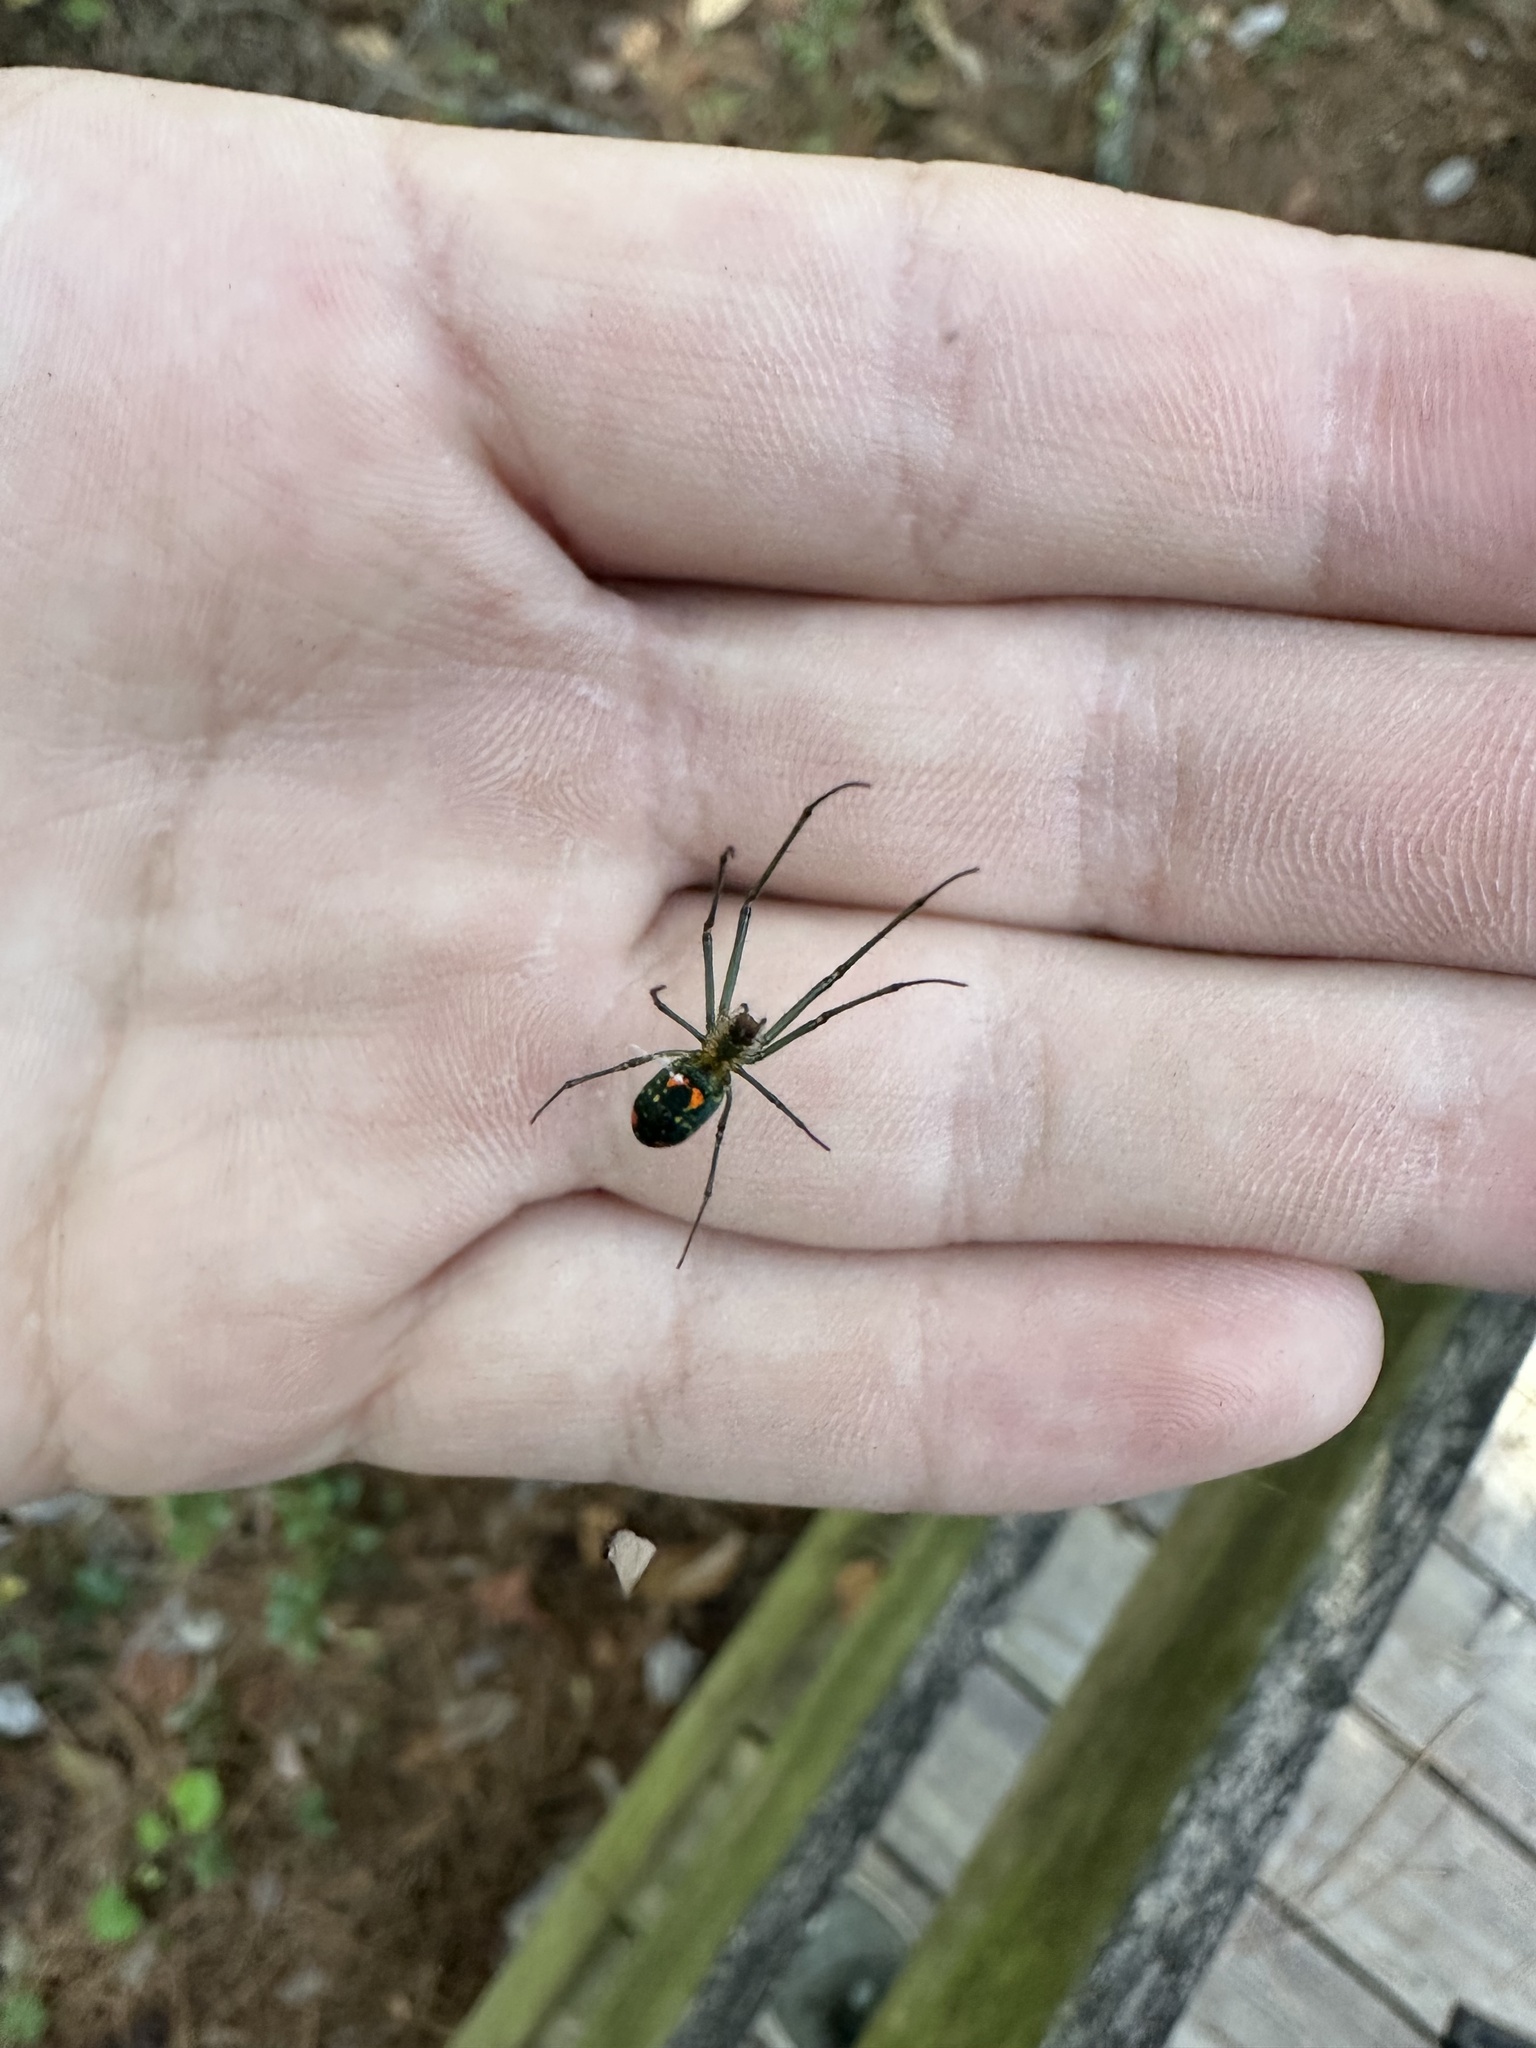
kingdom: Animalia
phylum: Arthropoda
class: Arachnida
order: Araneae
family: Tetragnathidae
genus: Leucauge
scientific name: Leucauge argyrobapta
